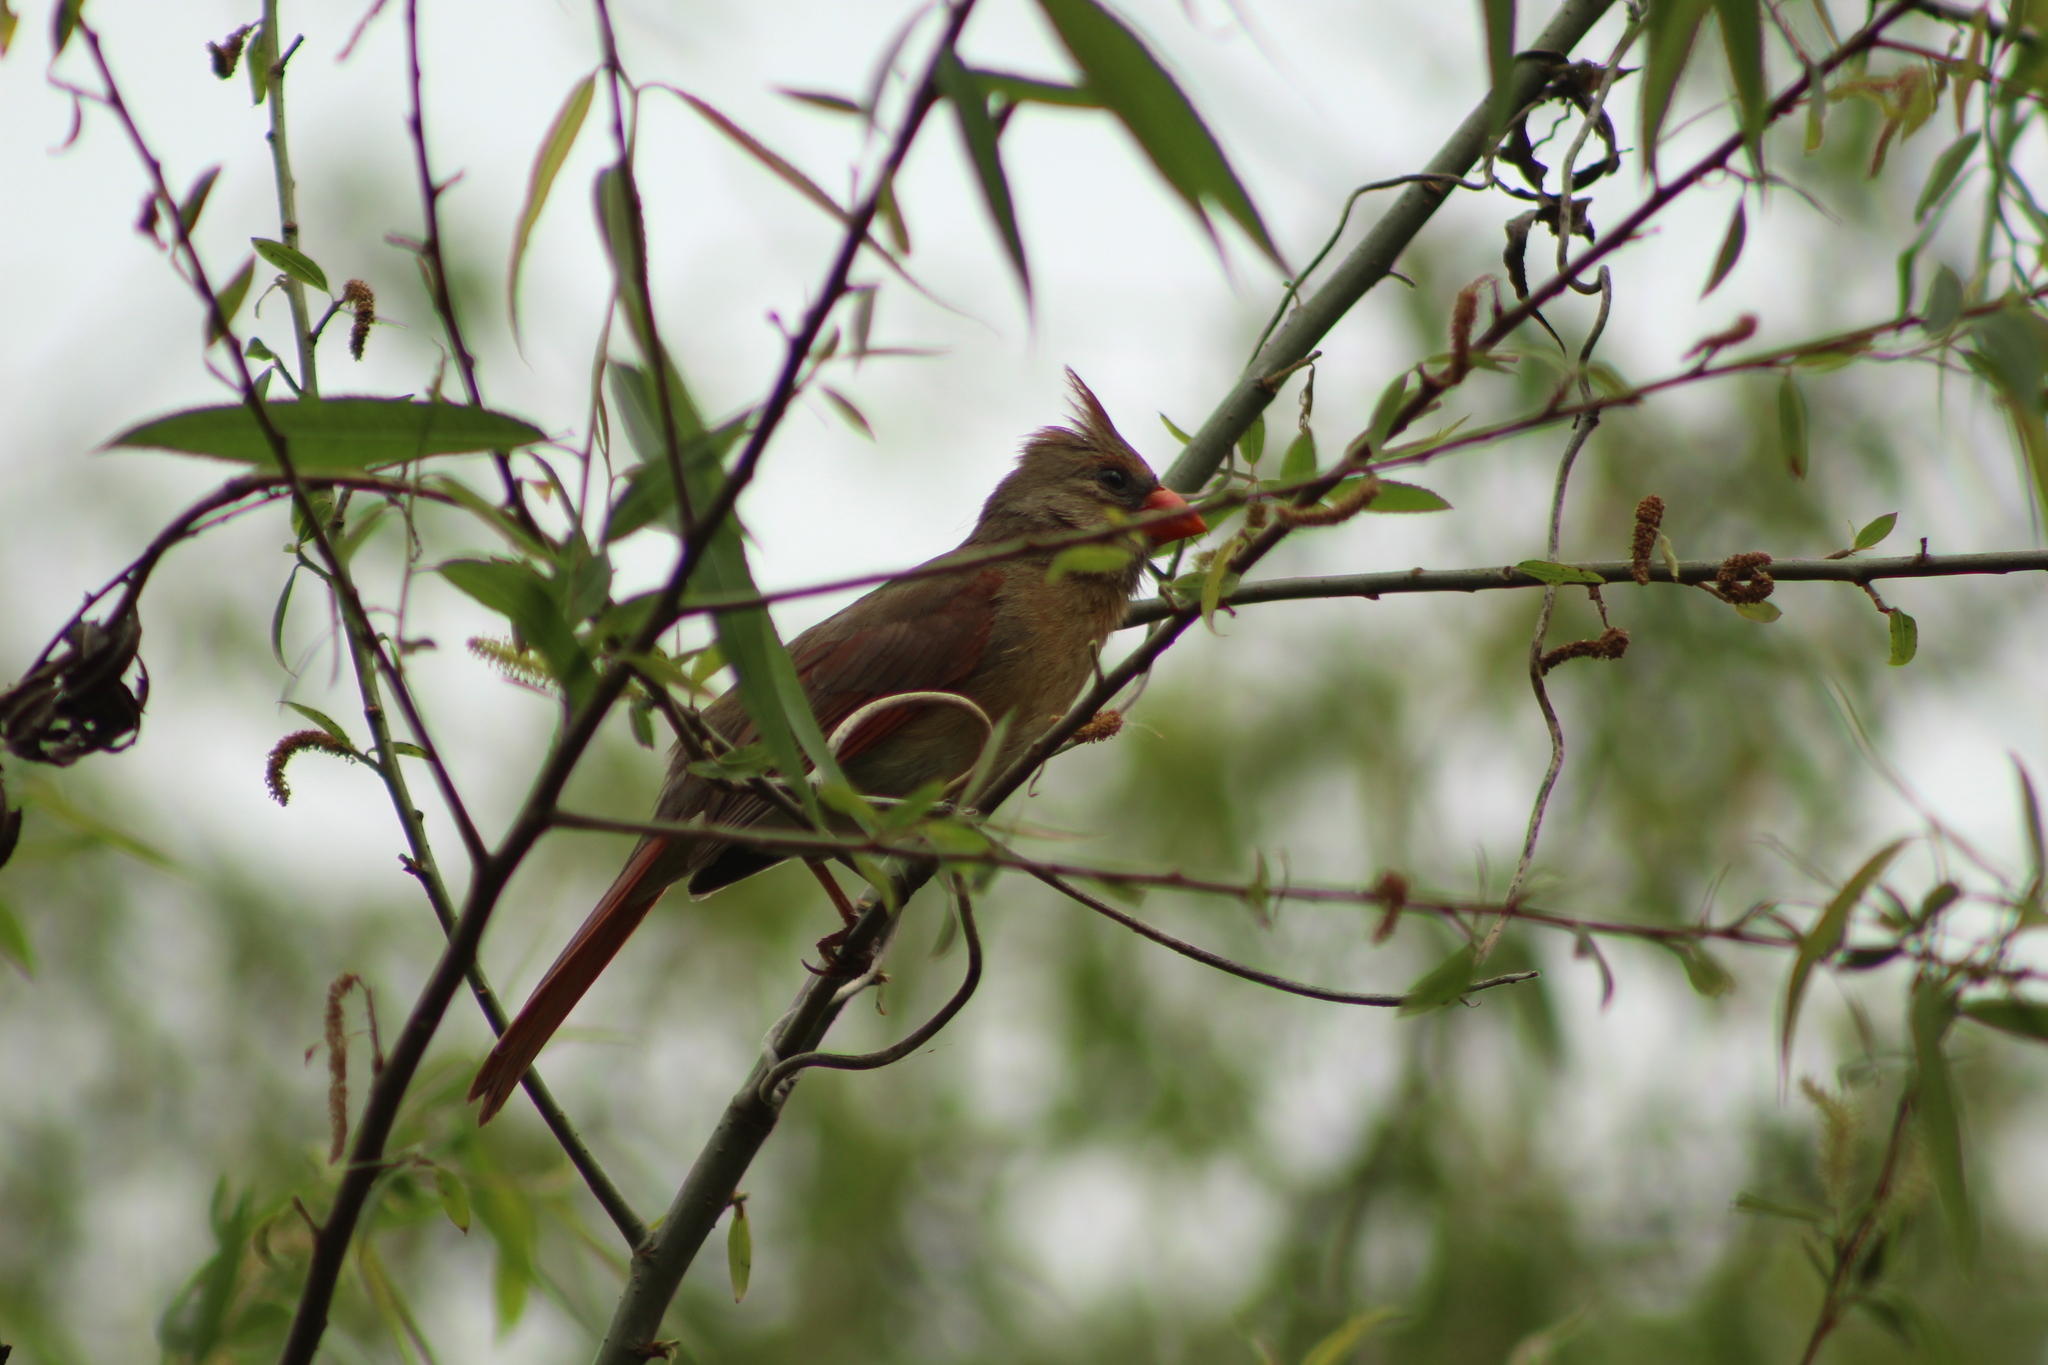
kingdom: Animalia
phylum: Chordata
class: Aves
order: Passeriformes
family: Cardinalidae
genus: Cardinalis
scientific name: Cardinalis cardinalis
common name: Northern cardinal
